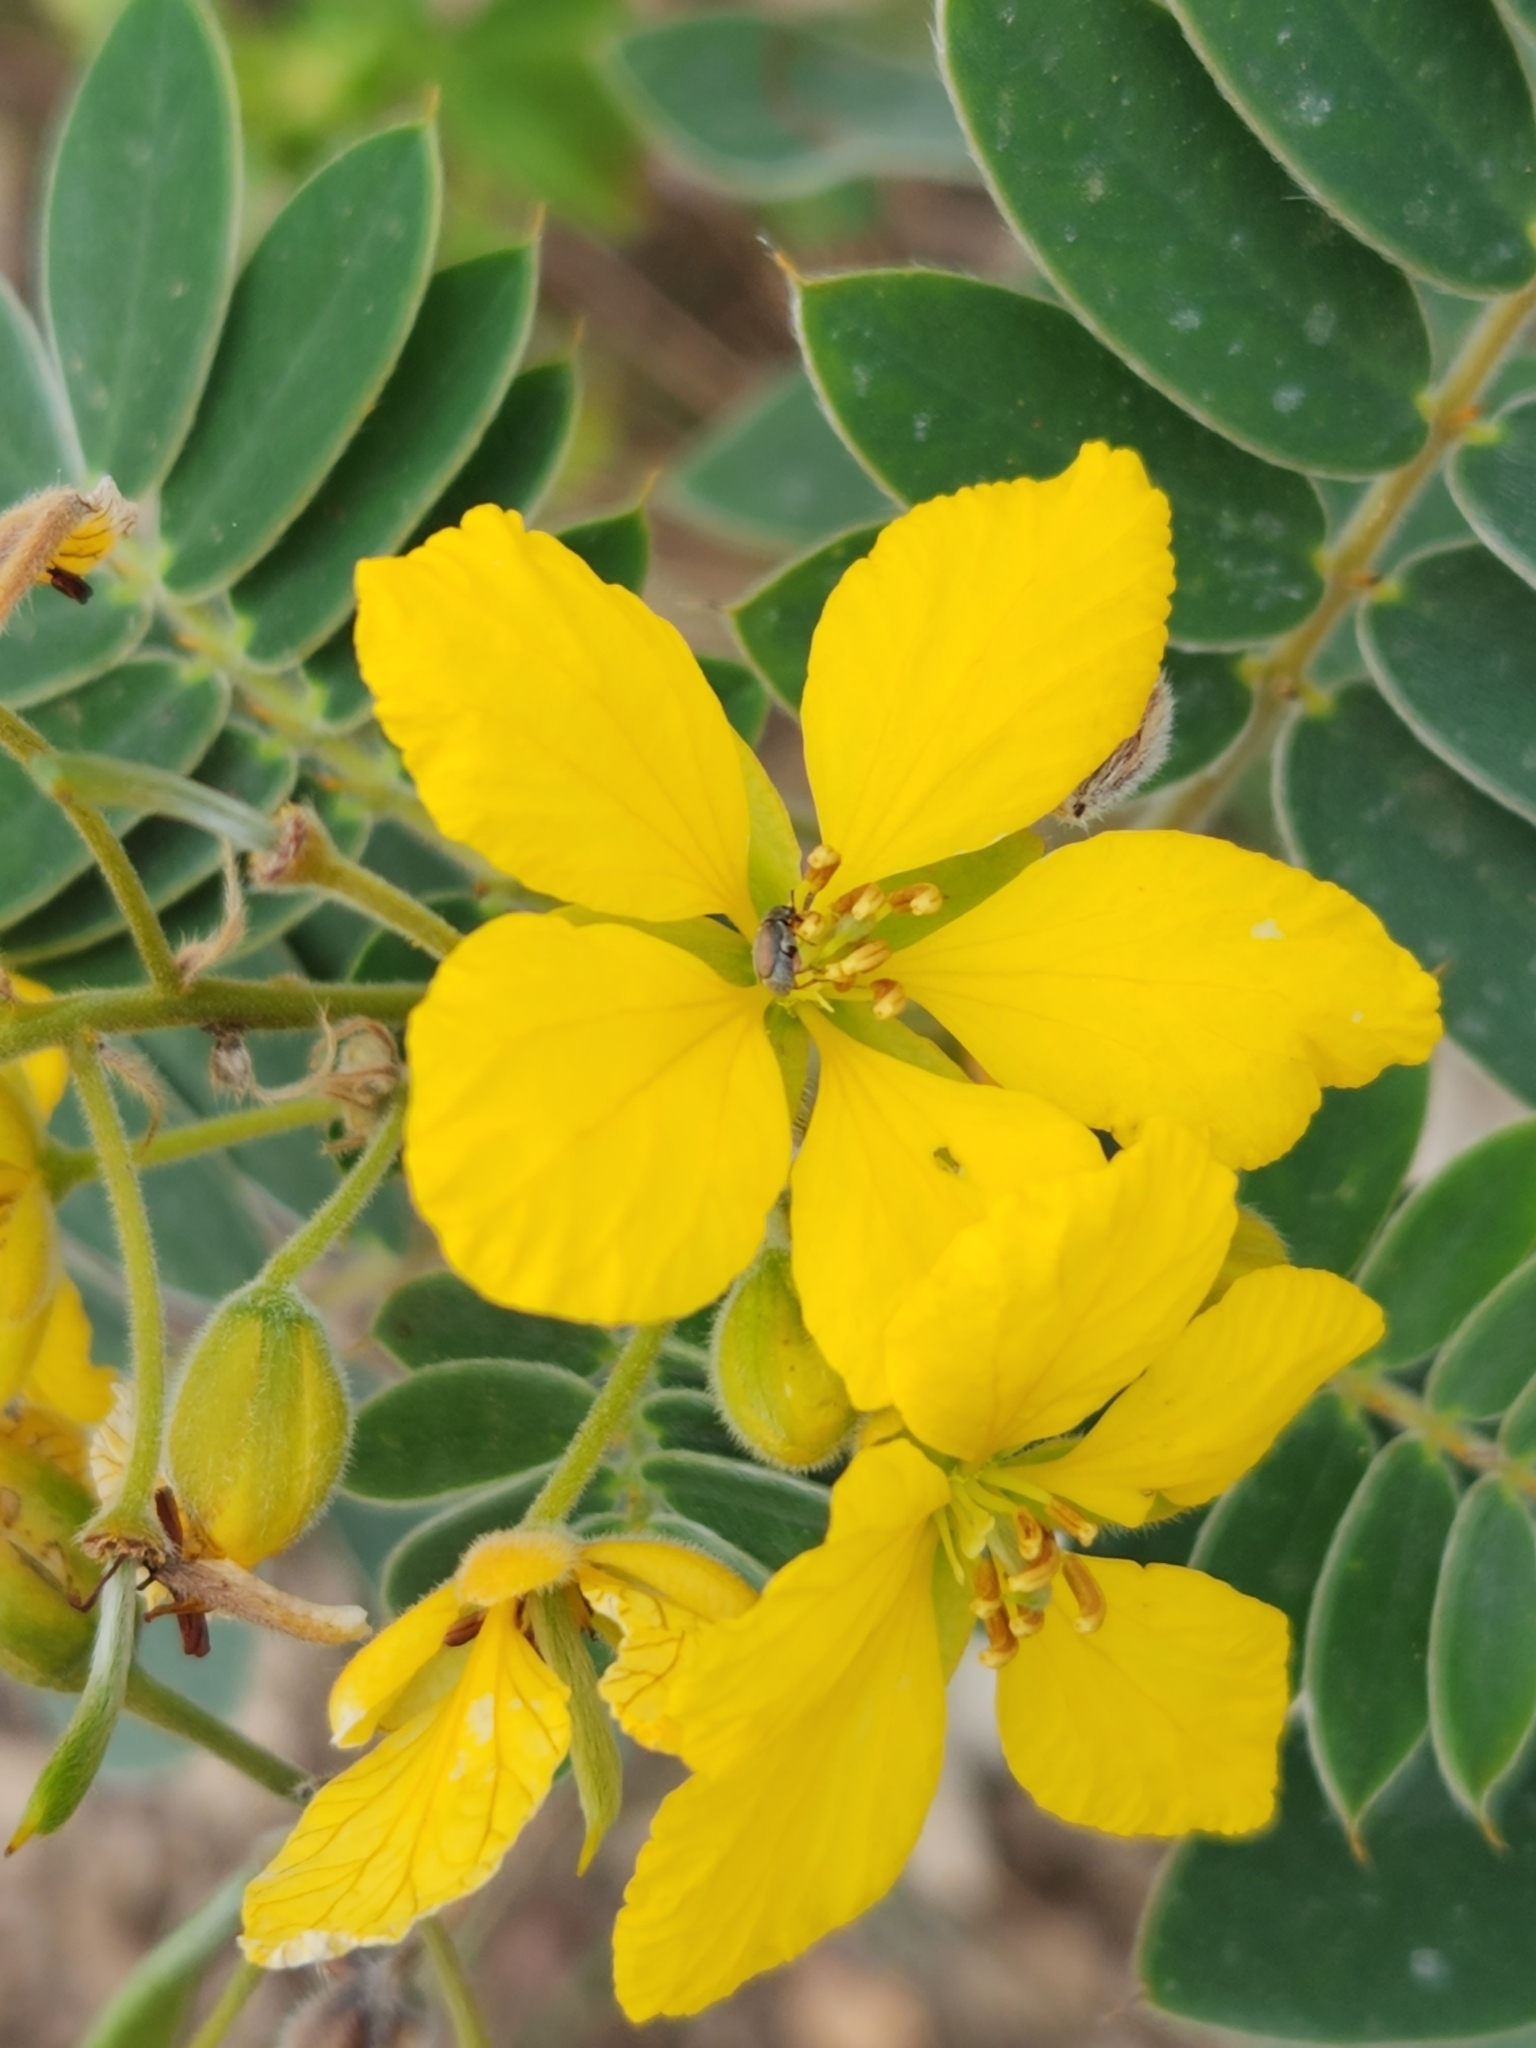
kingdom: Plantae
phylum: Tracheophyta
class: Magnoliopsida
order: Fabales
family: Fabaceae
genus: Senna
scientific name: Senna lindheimeriana
